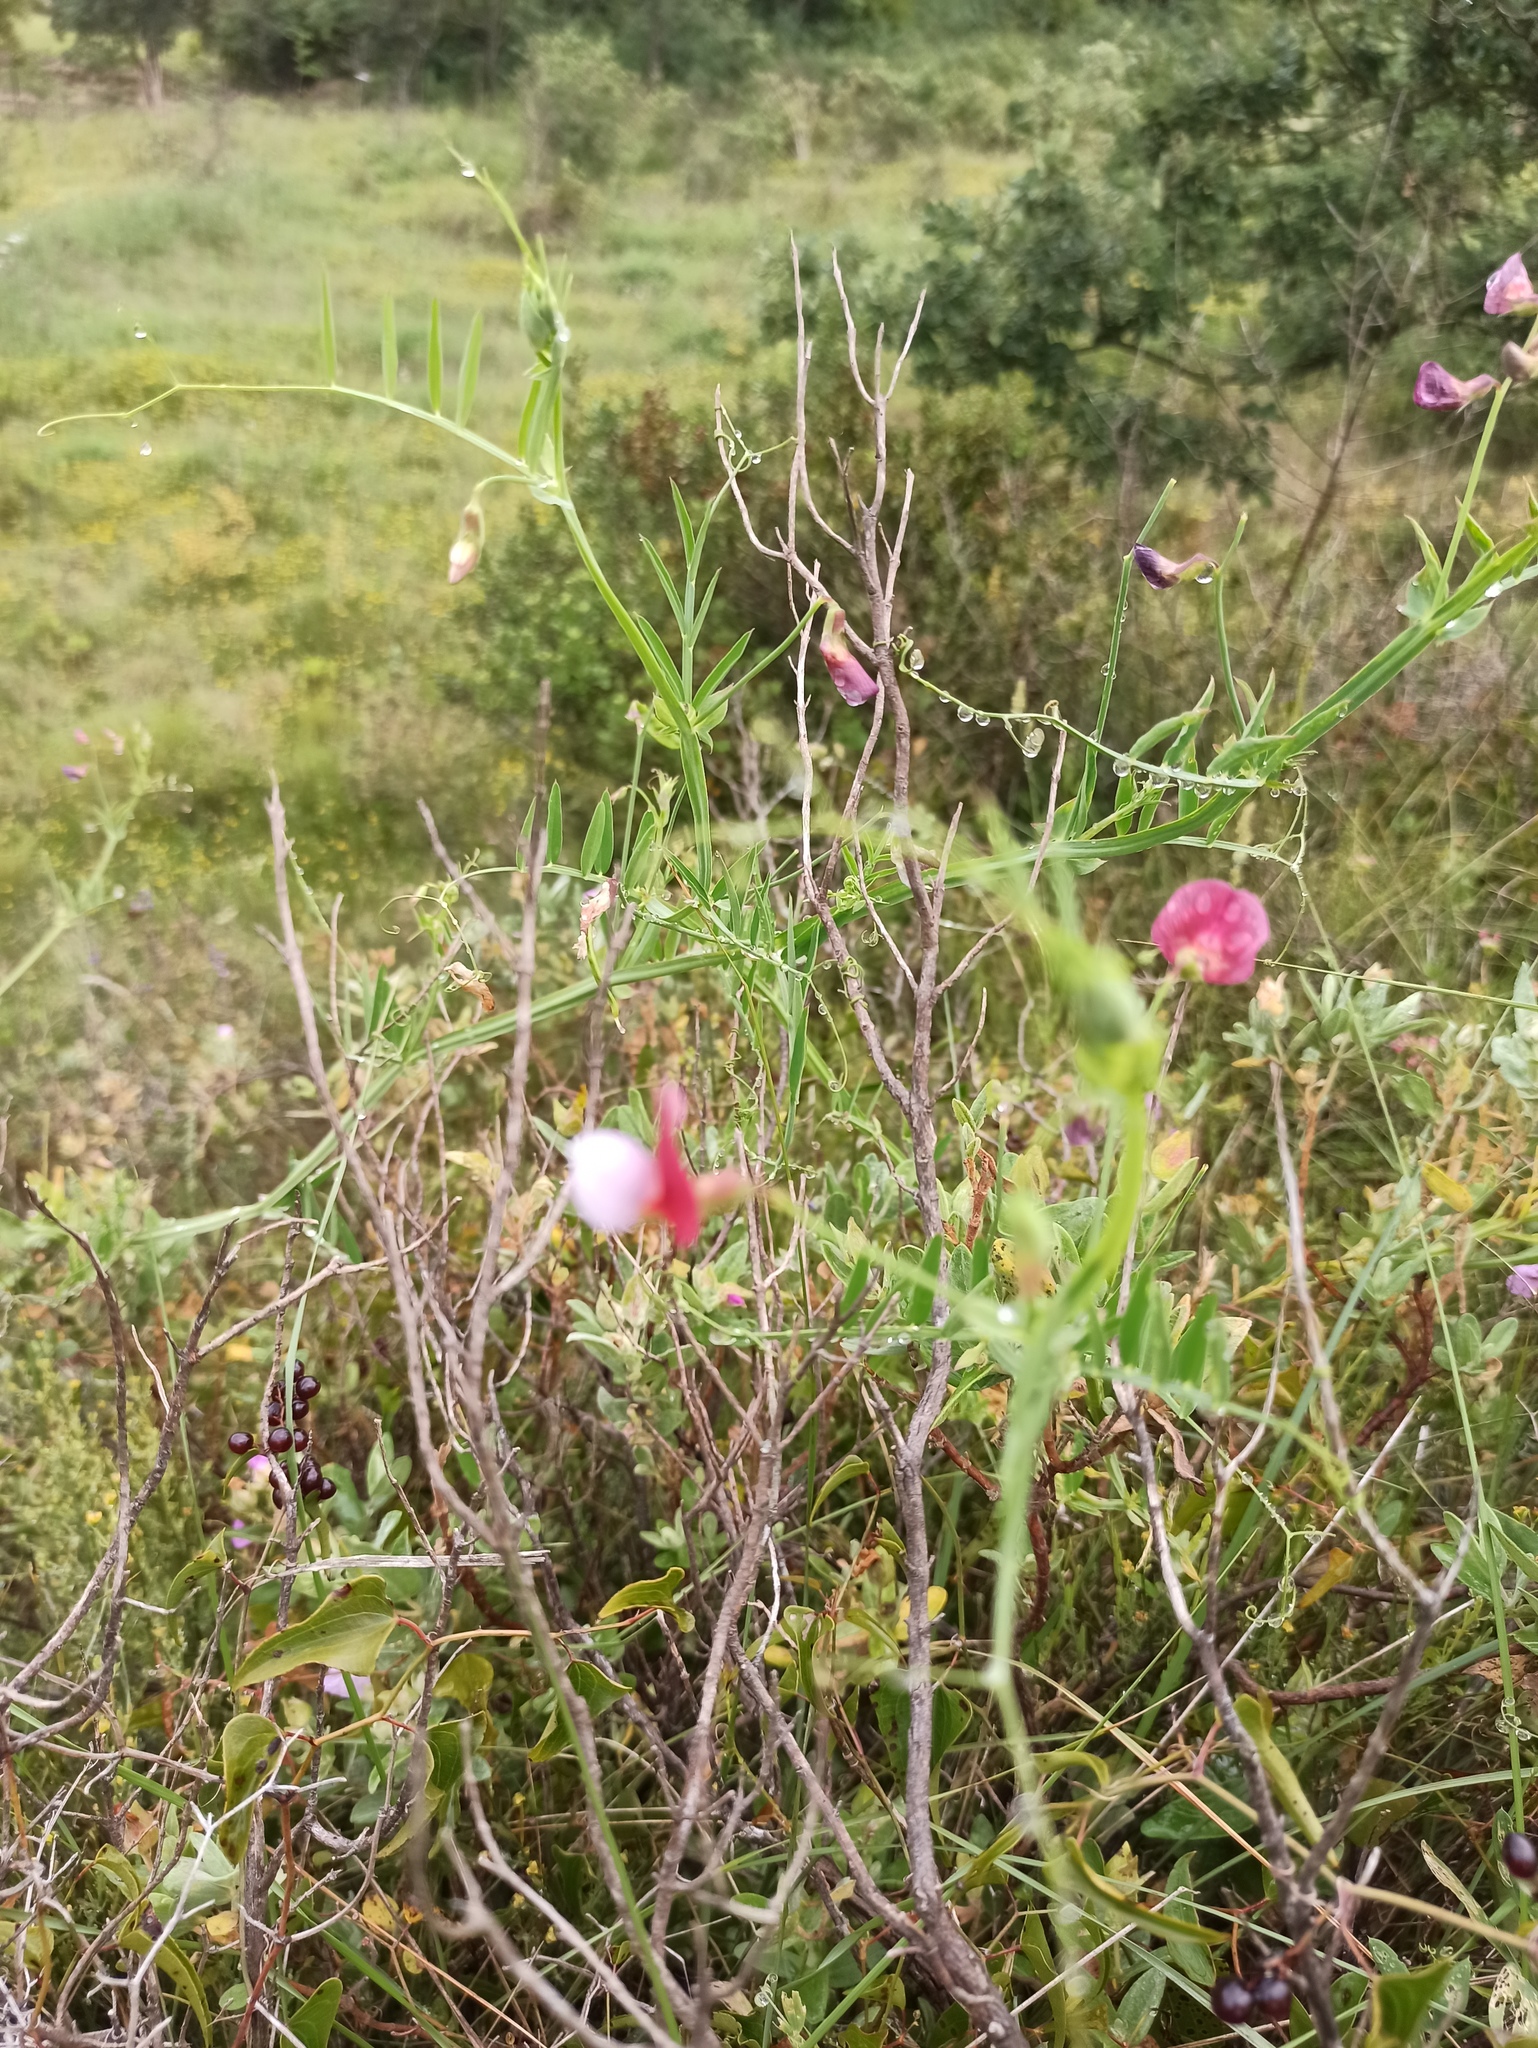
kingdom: Plantae
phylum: Tracheophyta
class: Magnoliopsida
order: Fabales
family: Fabaceae
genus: Lathyrus
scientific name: Lathyrus clymenum
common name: Spanish vetchling
